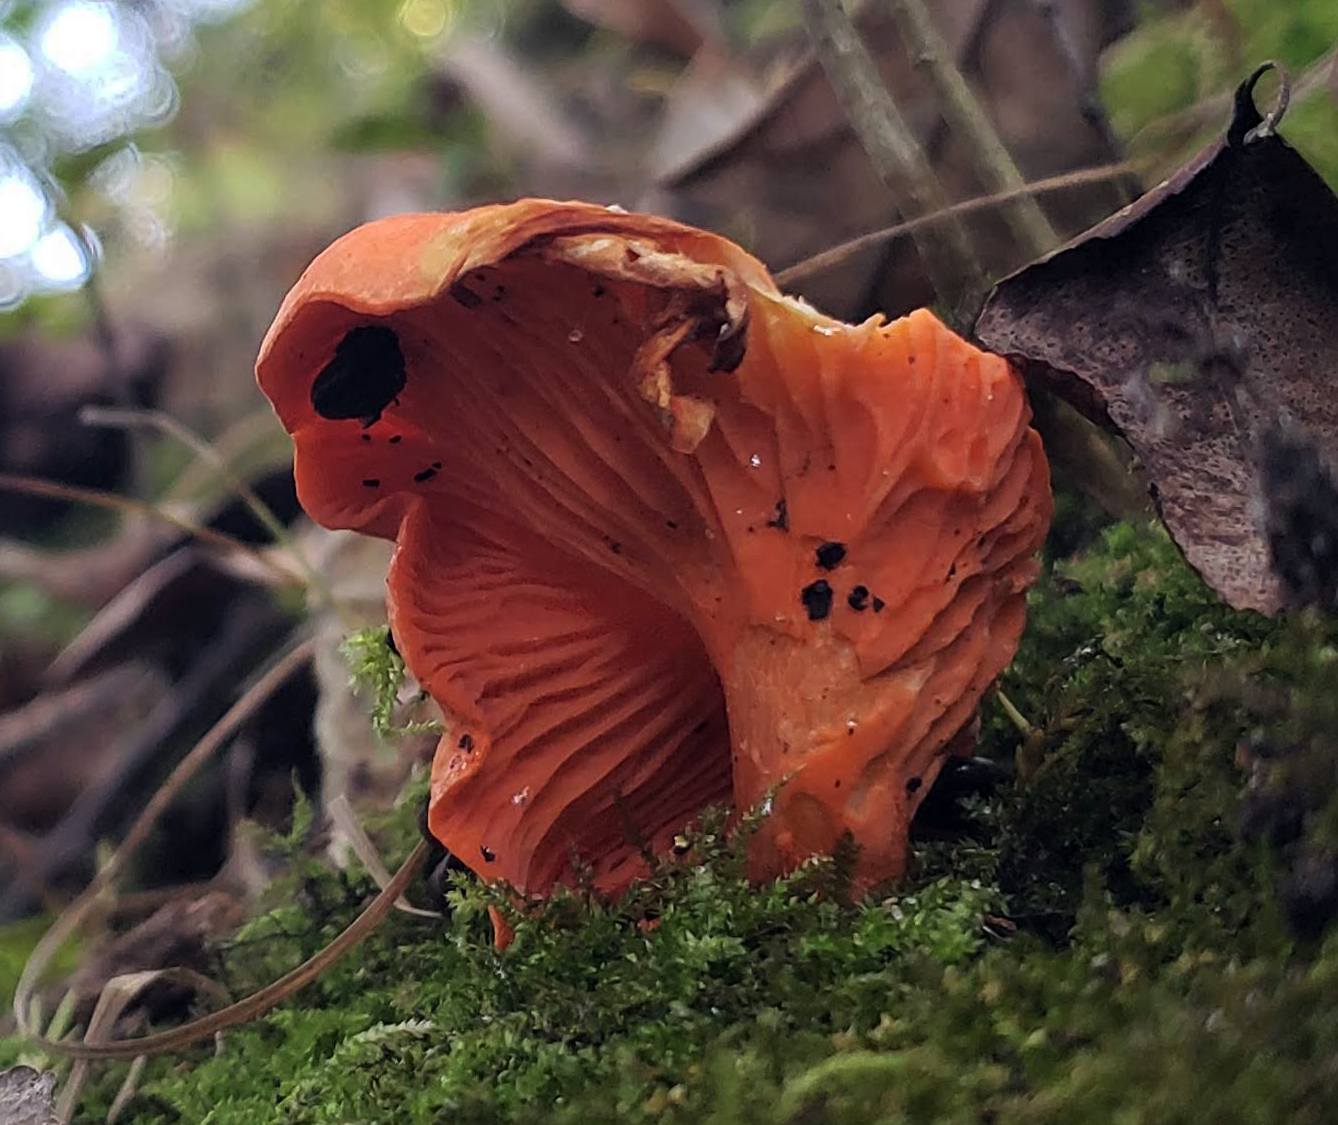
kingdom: Fungi
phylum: Basidiomycota
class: Agaricomycetes
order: Cantharellales
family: Hydnaceae
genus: Cantharellus
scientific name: Cantharellus cinnabarinus
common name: Cinnabar chanterelle
